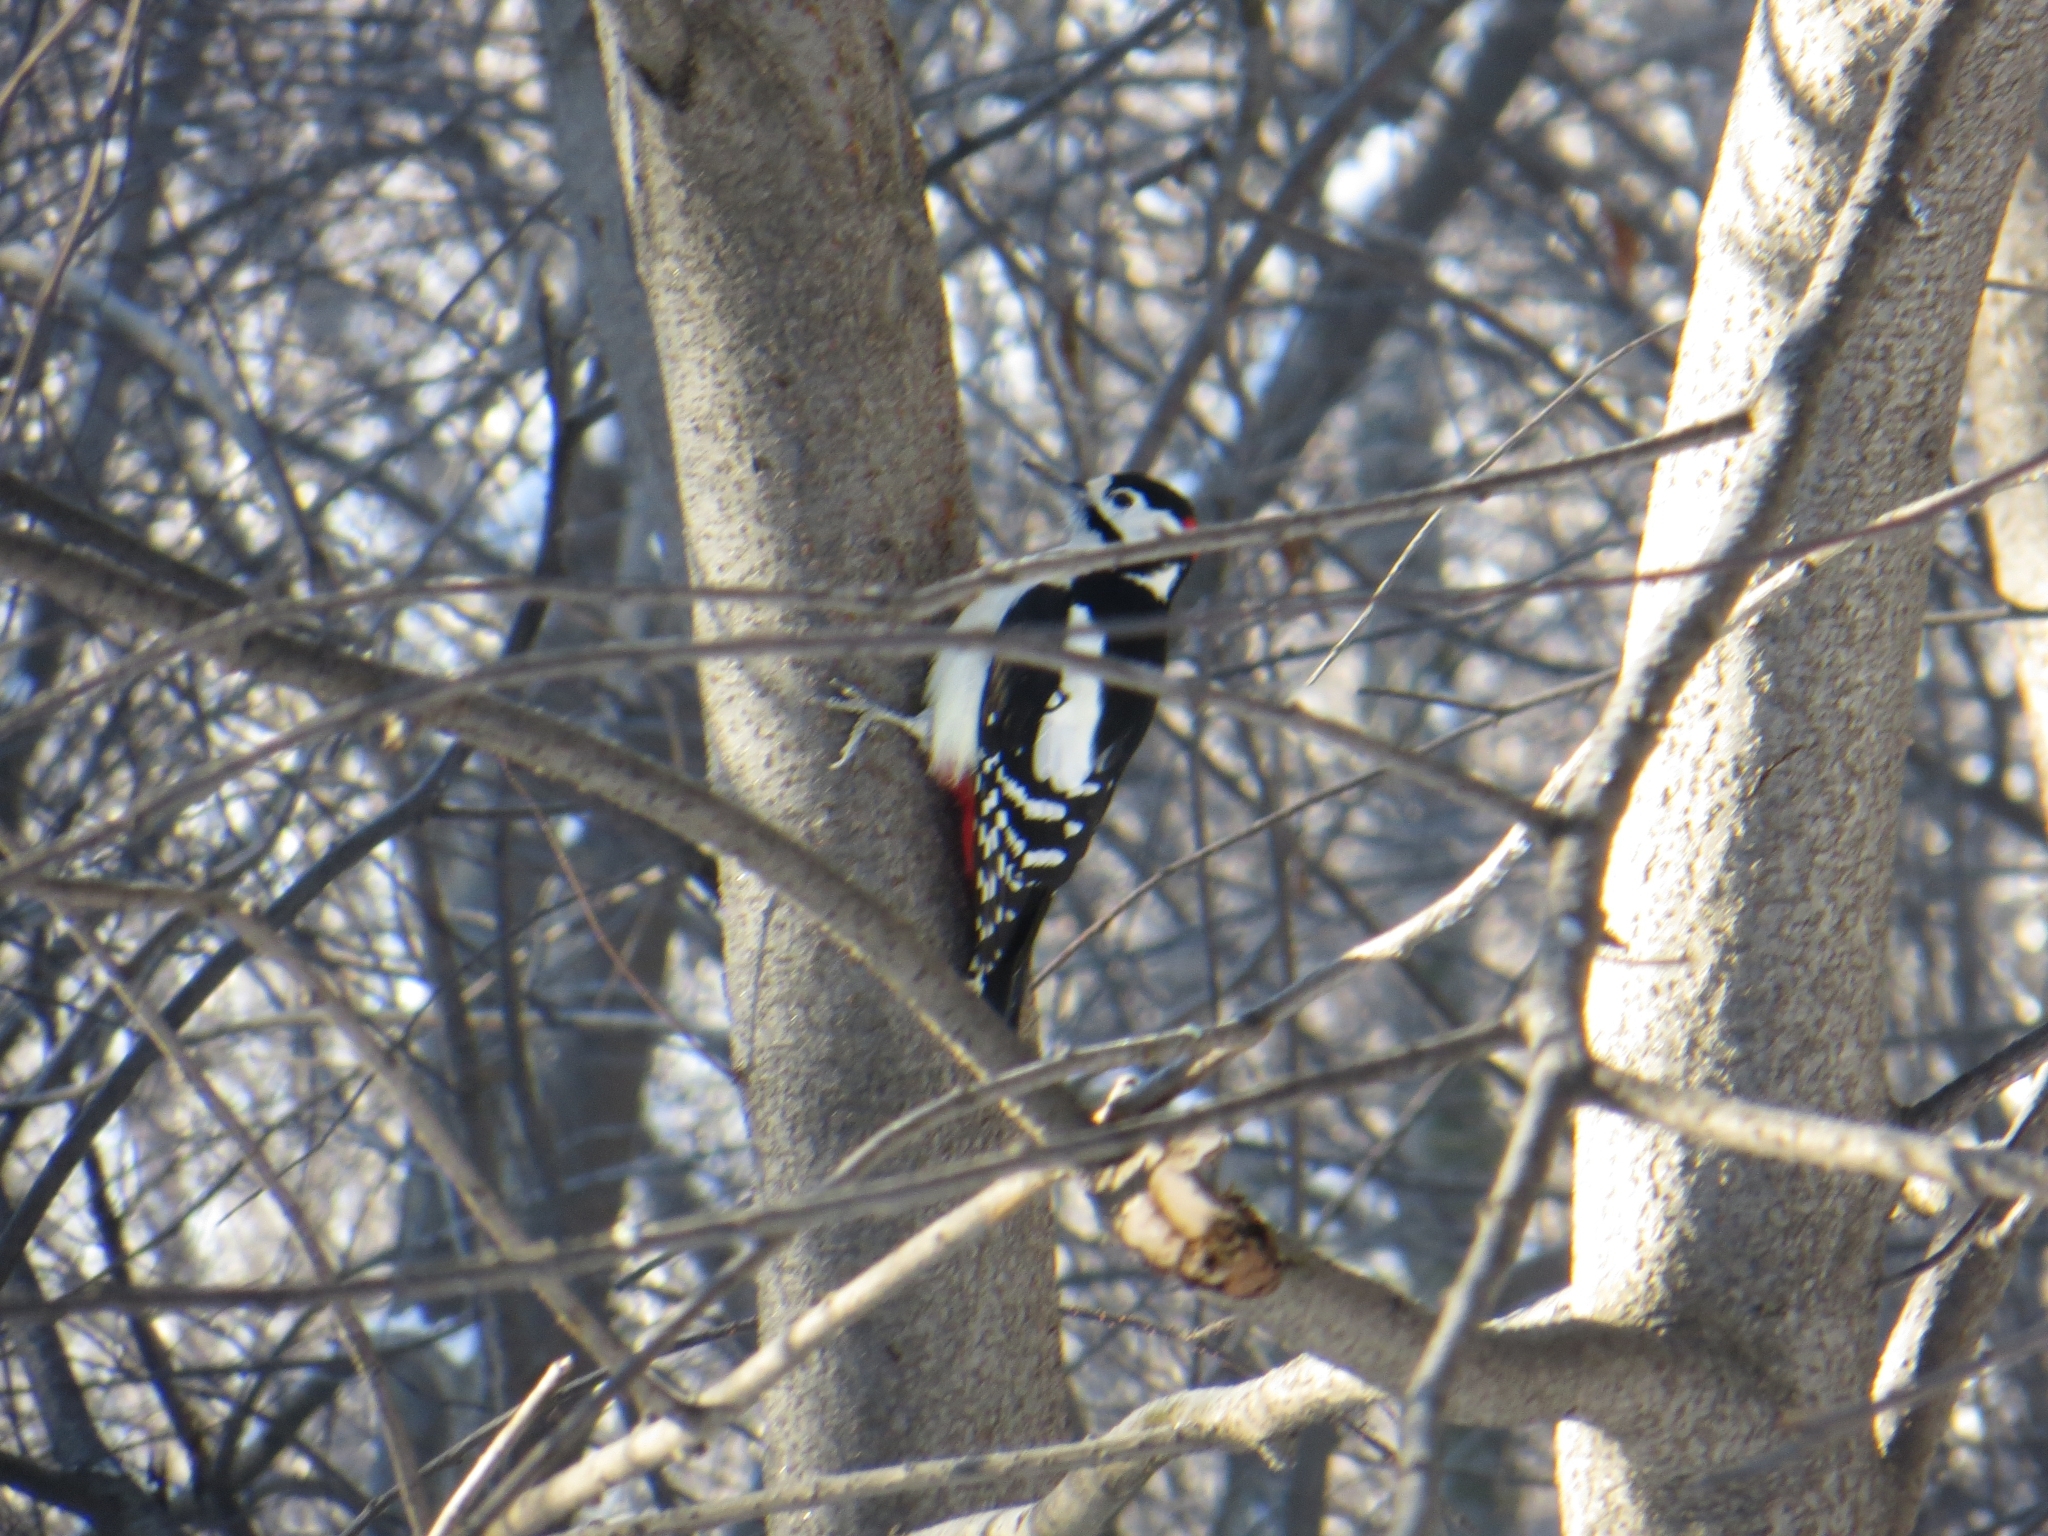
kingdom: Animalia
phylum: Chordata
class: Aves
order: Piciformes
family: Picidae
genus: Dendrocopos
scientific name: Dendrocopos major
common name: Great spotted woodpecker
